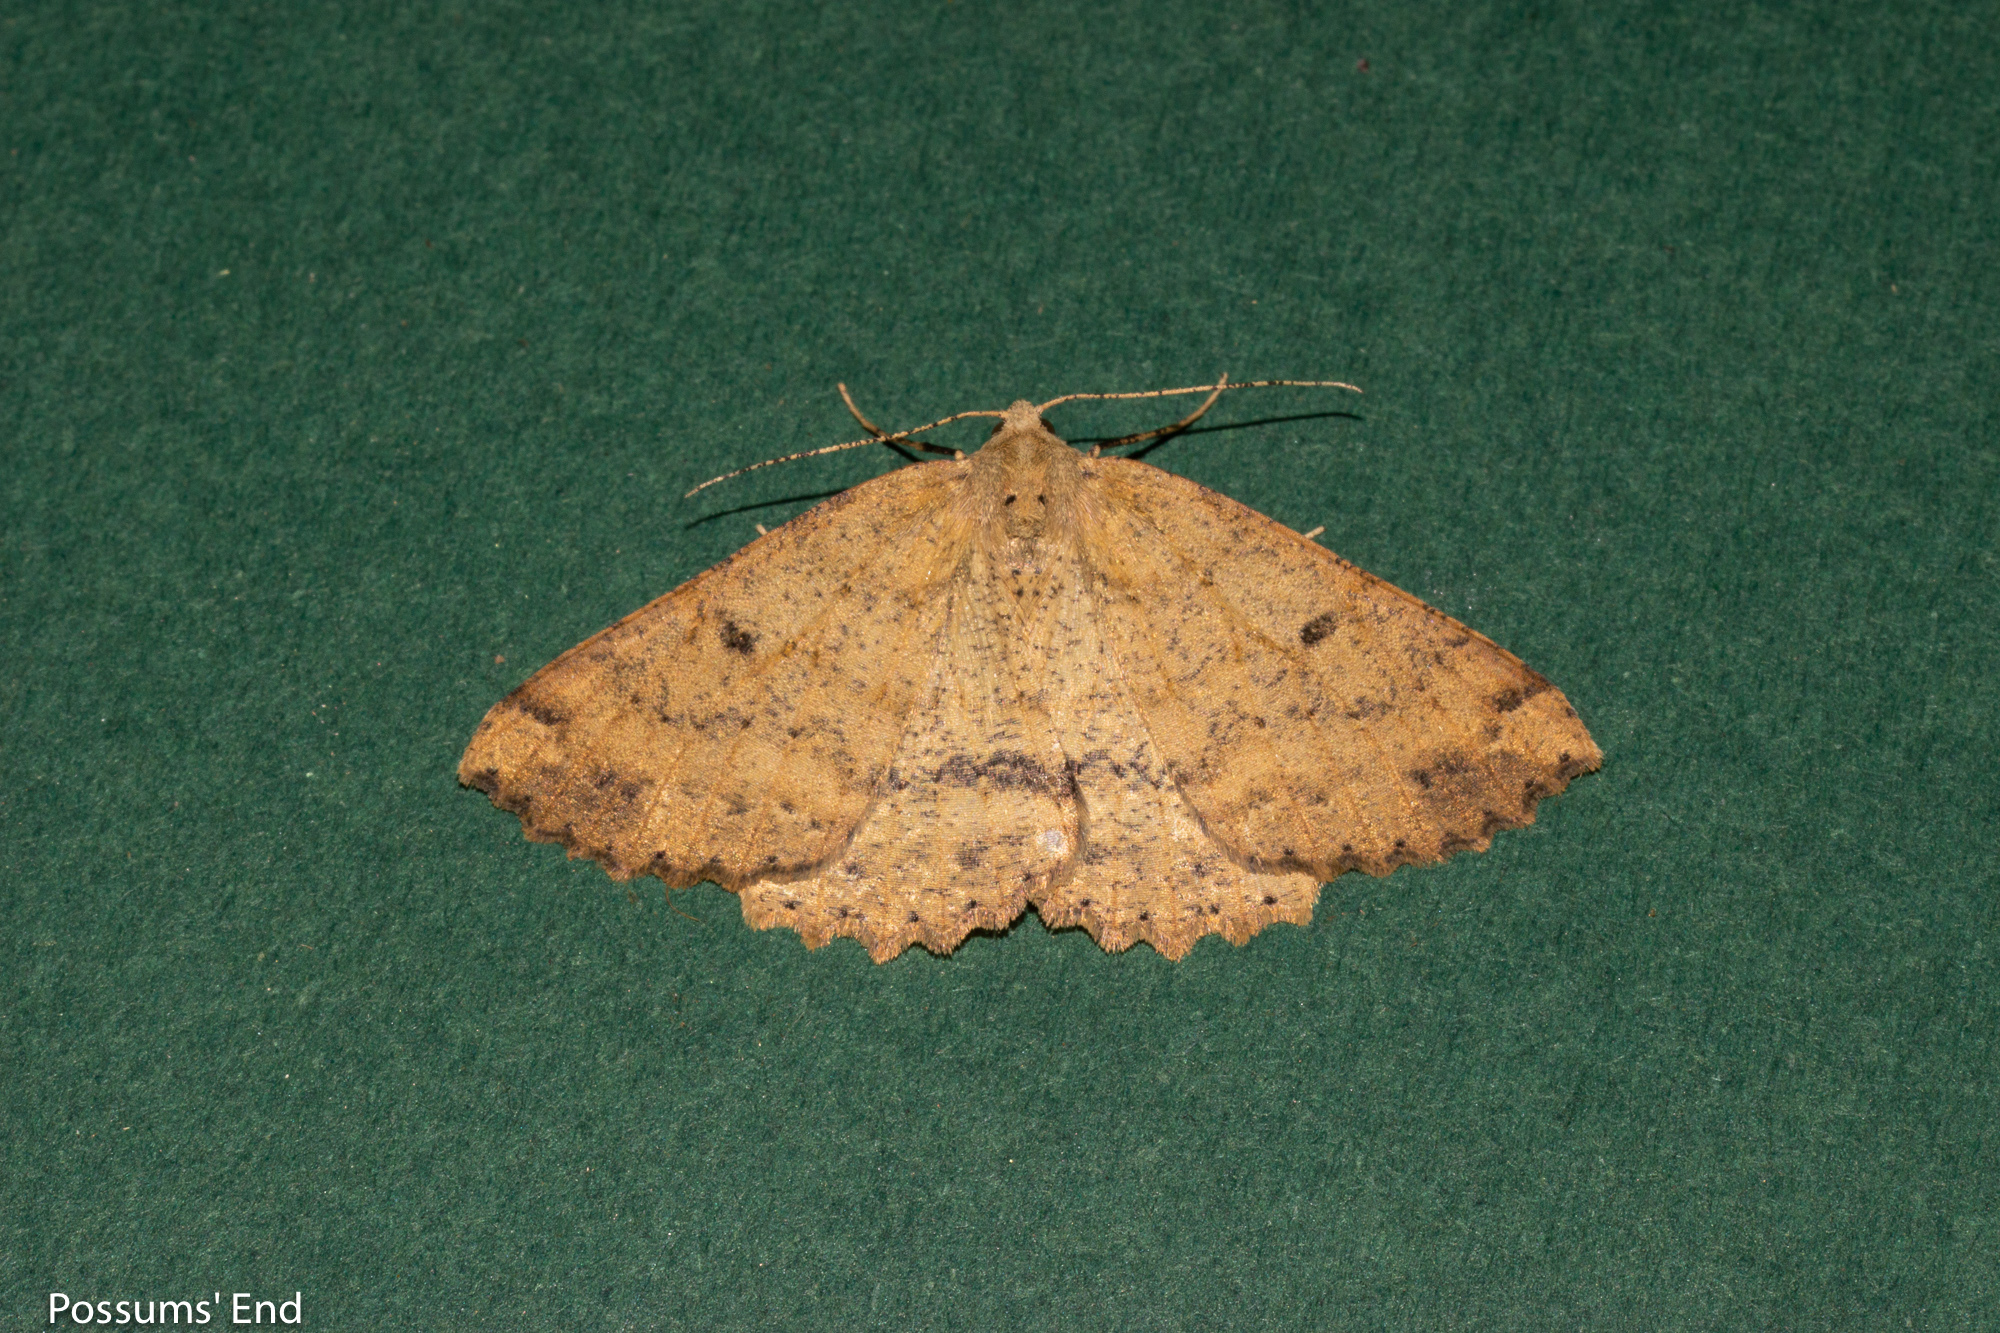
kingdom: Animalia
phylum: Arthropoda
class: Insecta
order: Lepidoptera
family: Geometridae
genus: Cleora
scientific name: Cleora scriptaria
